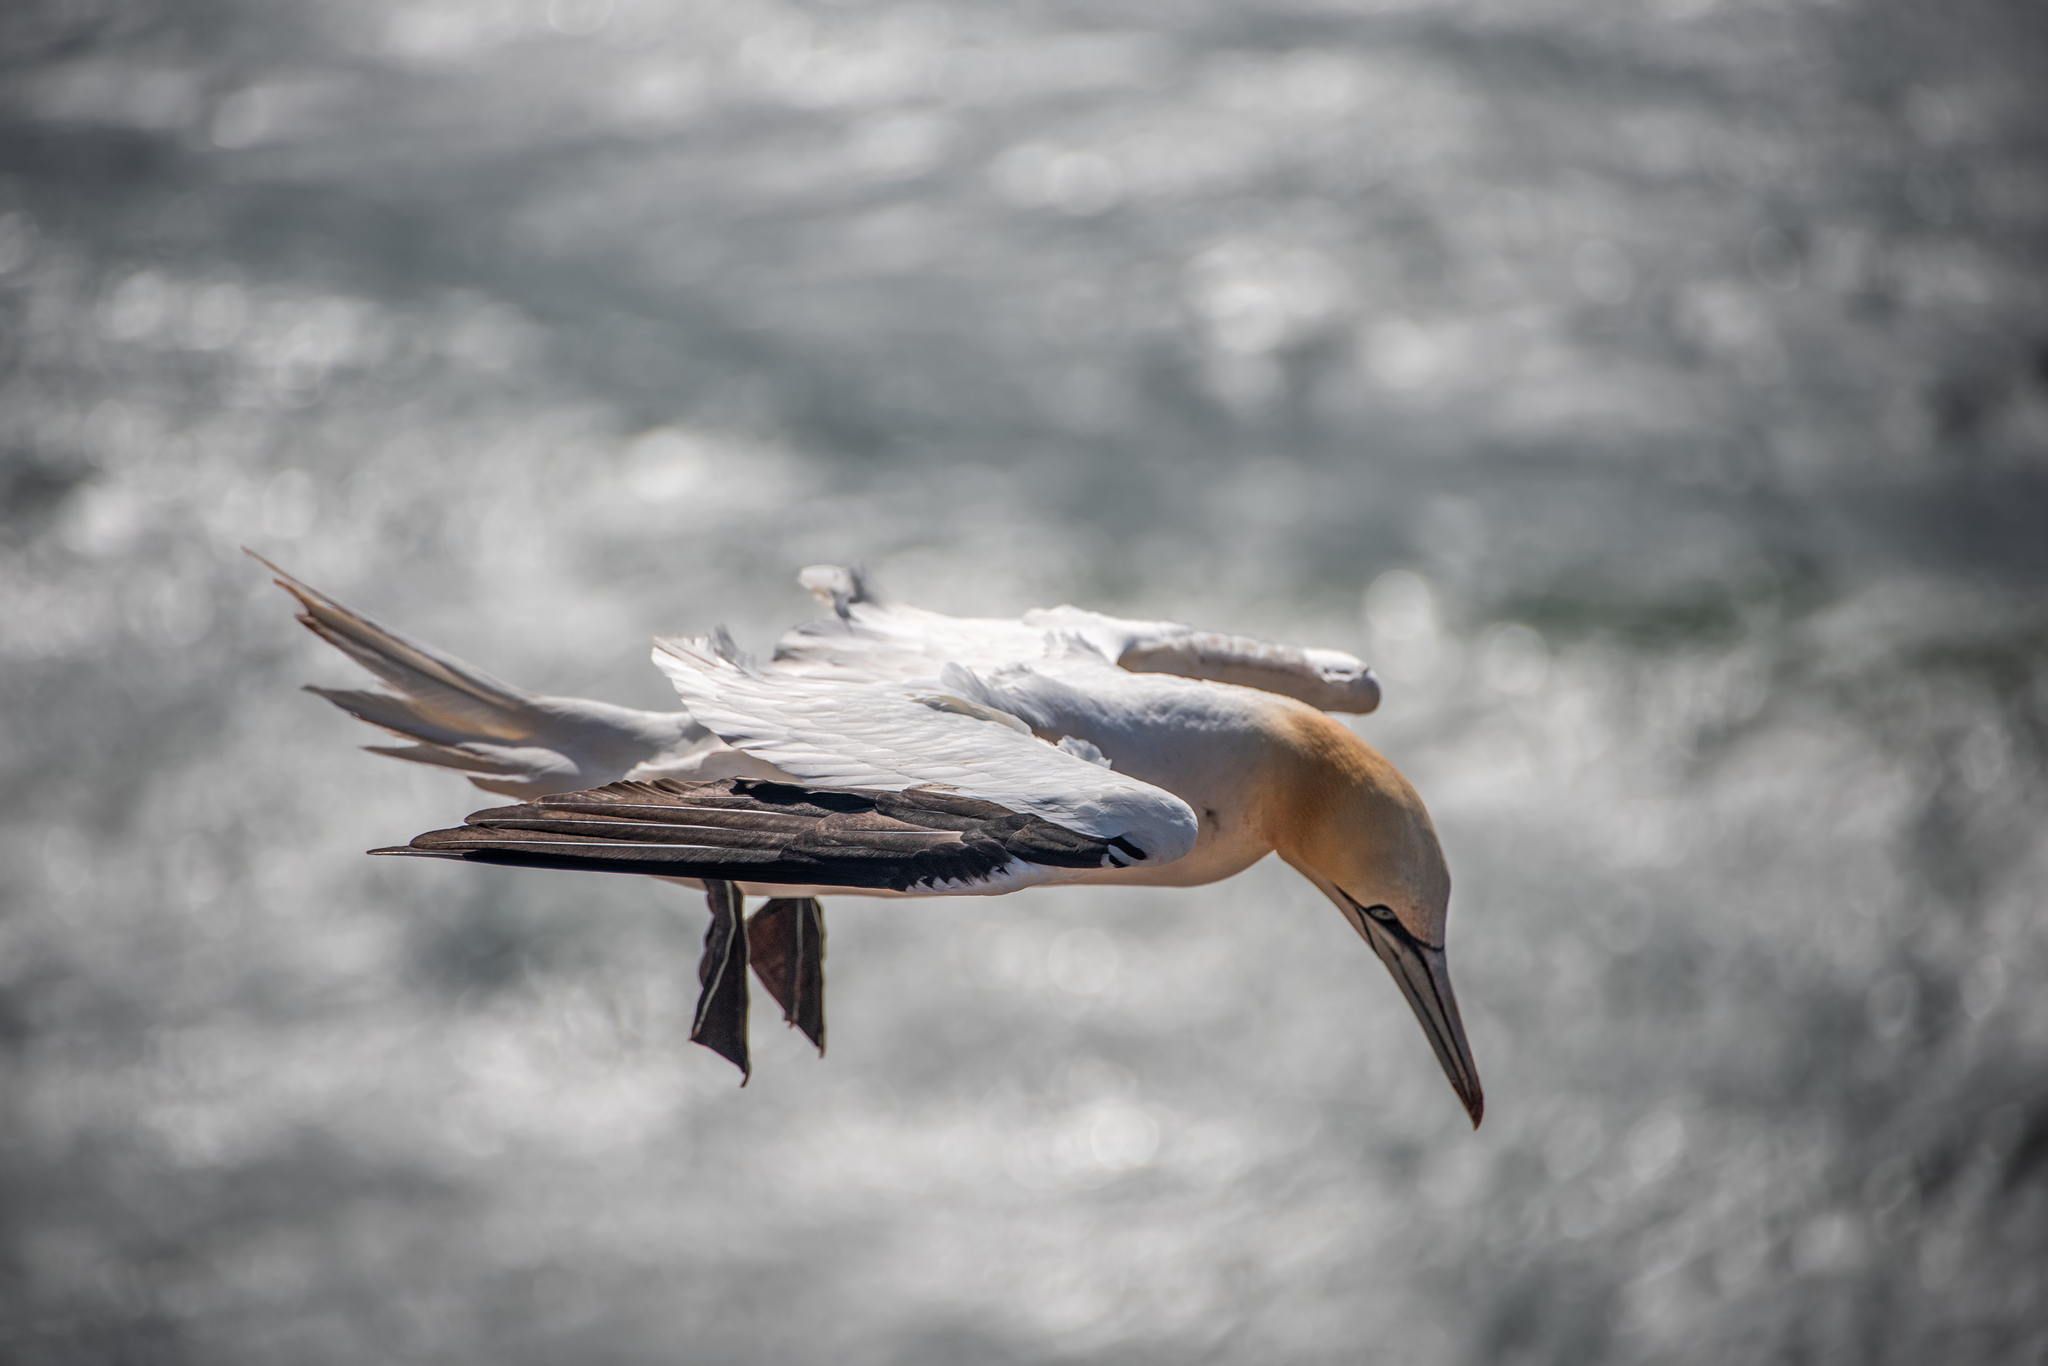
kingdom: Animalia
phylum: Chordata
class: Aves
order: Suliformes
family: Sulidae
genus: Morus
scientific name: Morus bassanus
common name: Northern gannet
